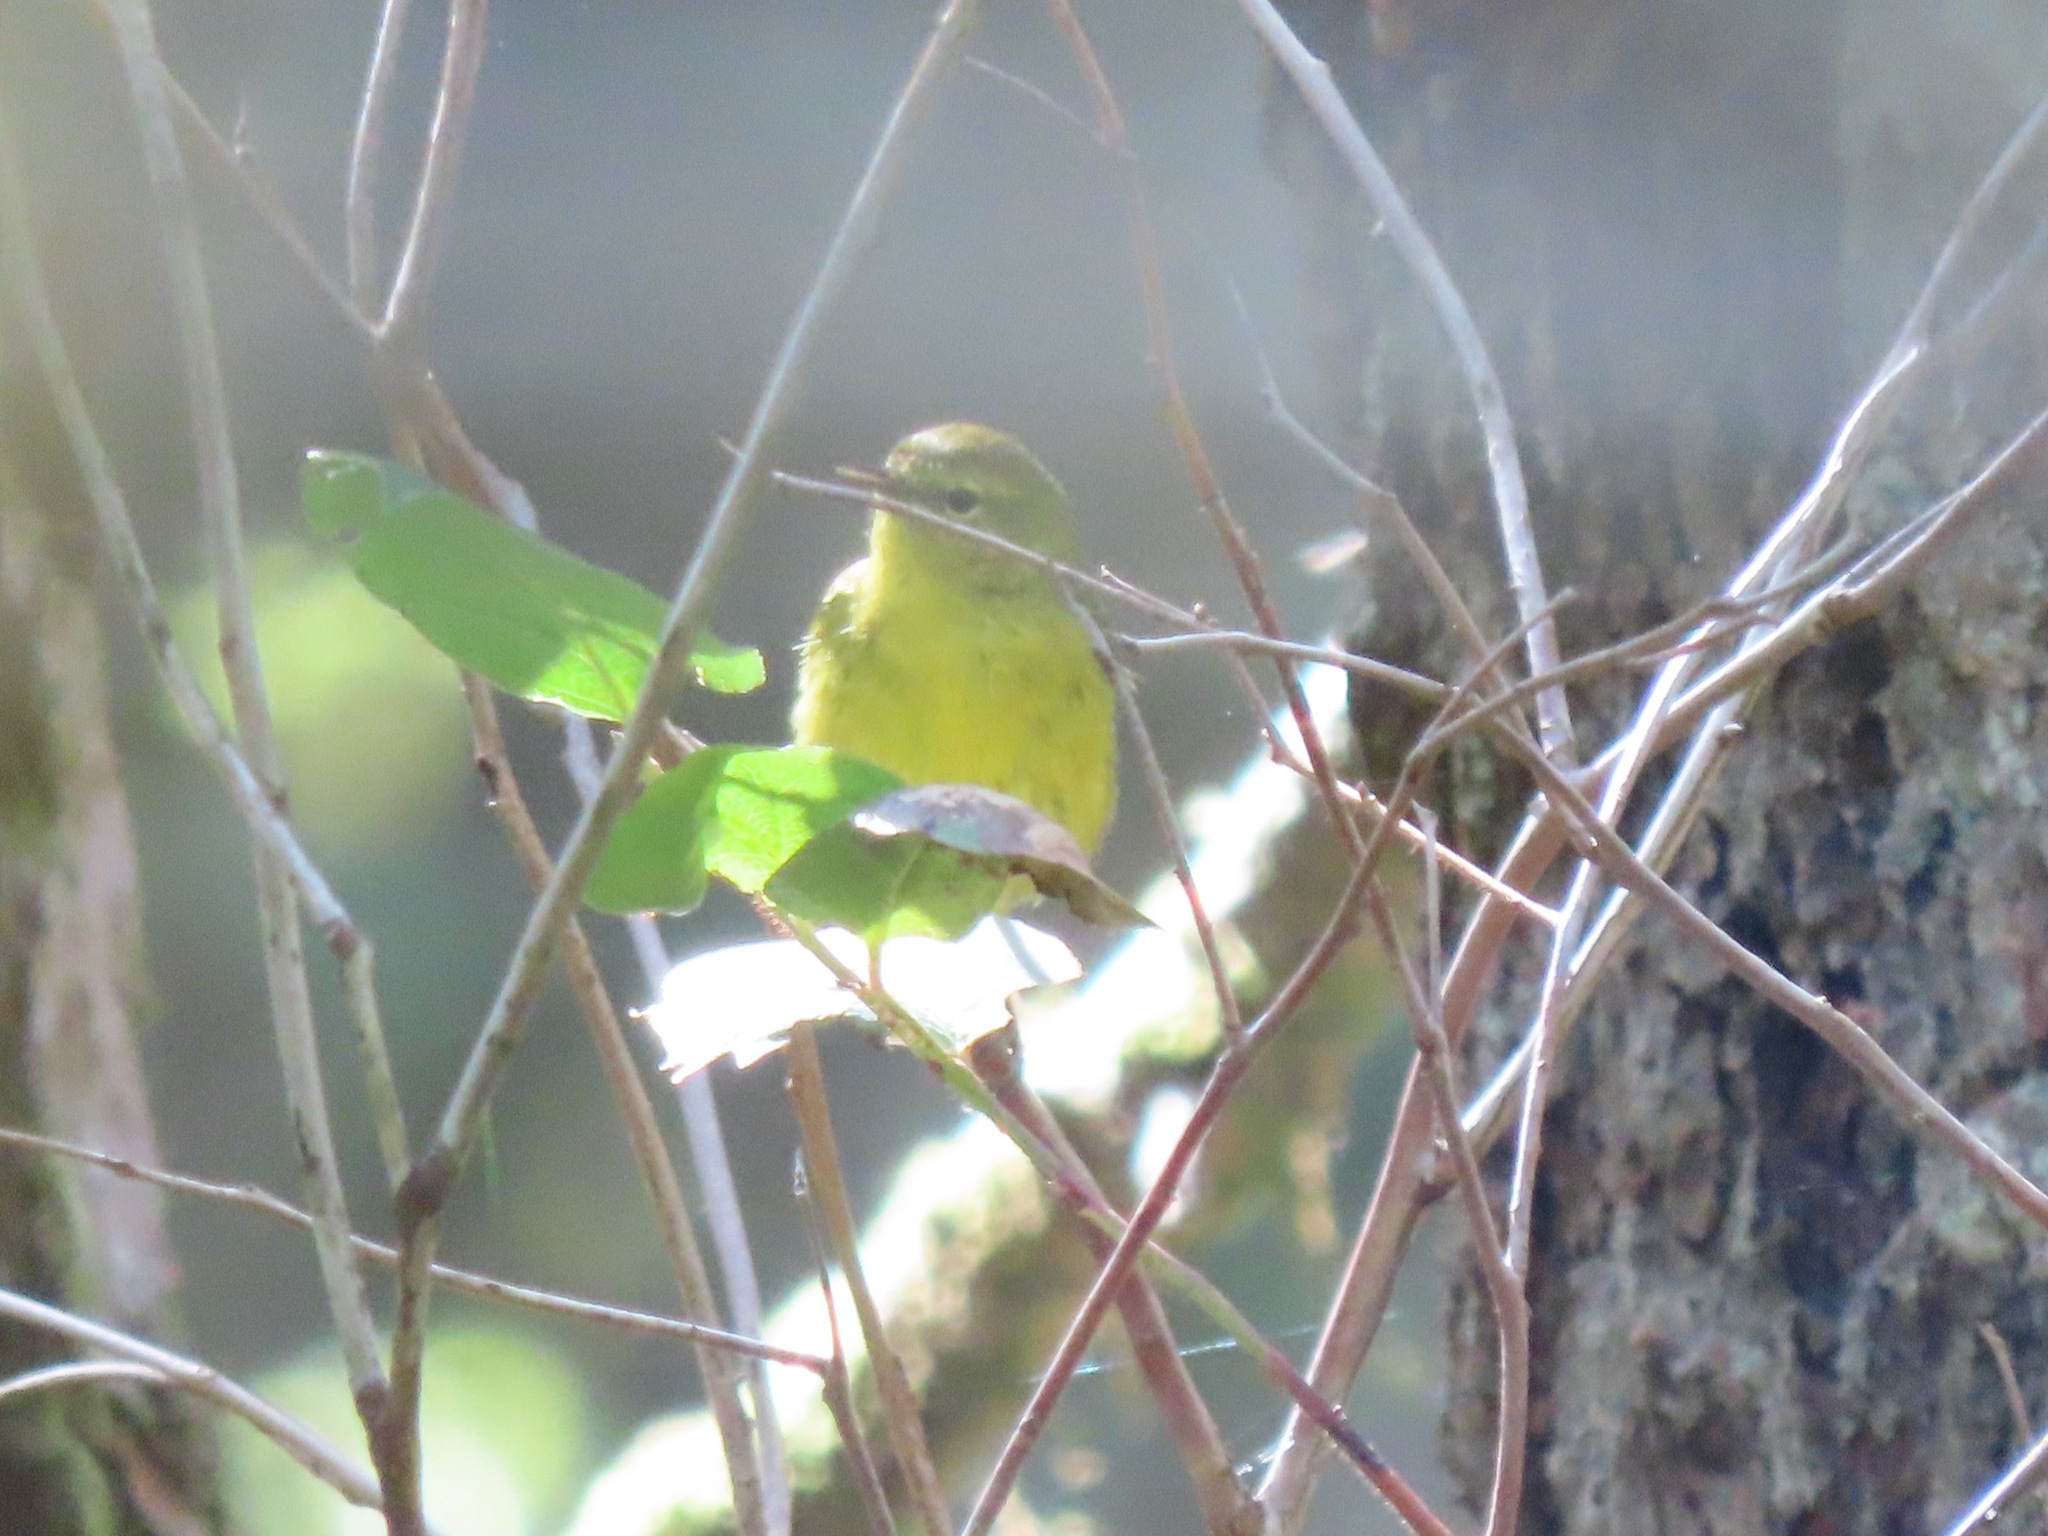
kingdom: Animalia
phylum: Chordata
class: Aves
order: Passeriformes
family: Parulidae
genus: Leiothlypis
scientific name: Leiothlypis celata
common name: Orange-crowned warbler
